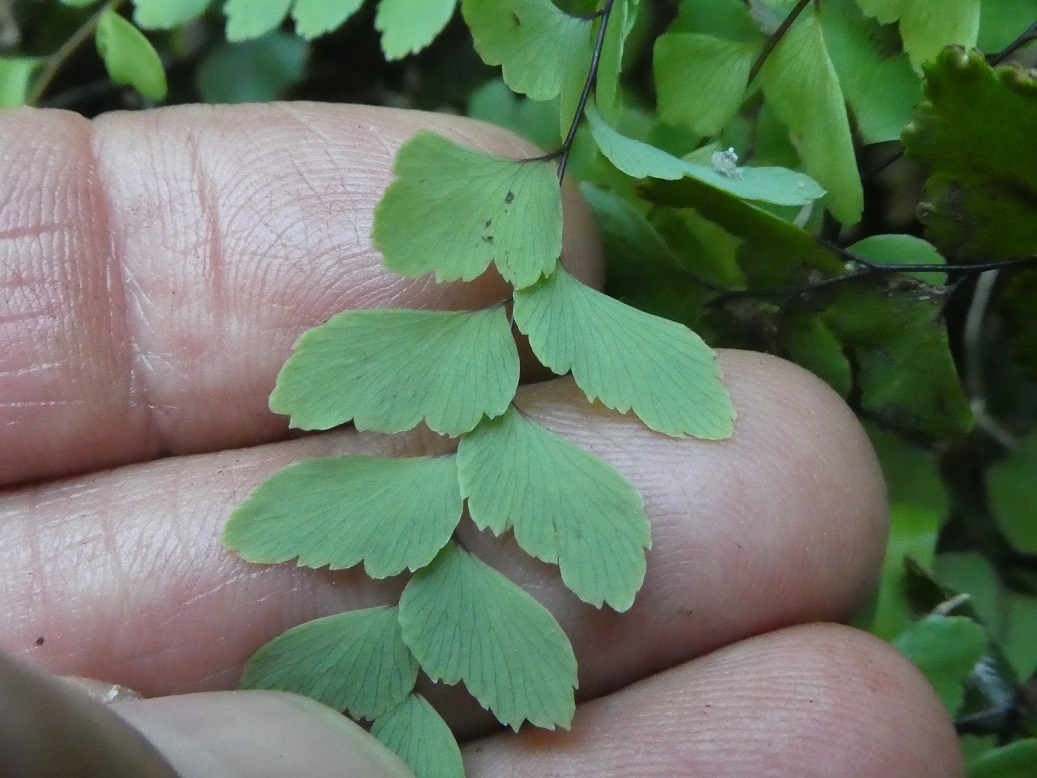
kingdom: Plantae
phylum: Tracheophyta
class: Polypodiopsida
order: Polypodiales
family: Pteridaceae
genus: Adiantum
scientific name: Adiantum cunninghamii
